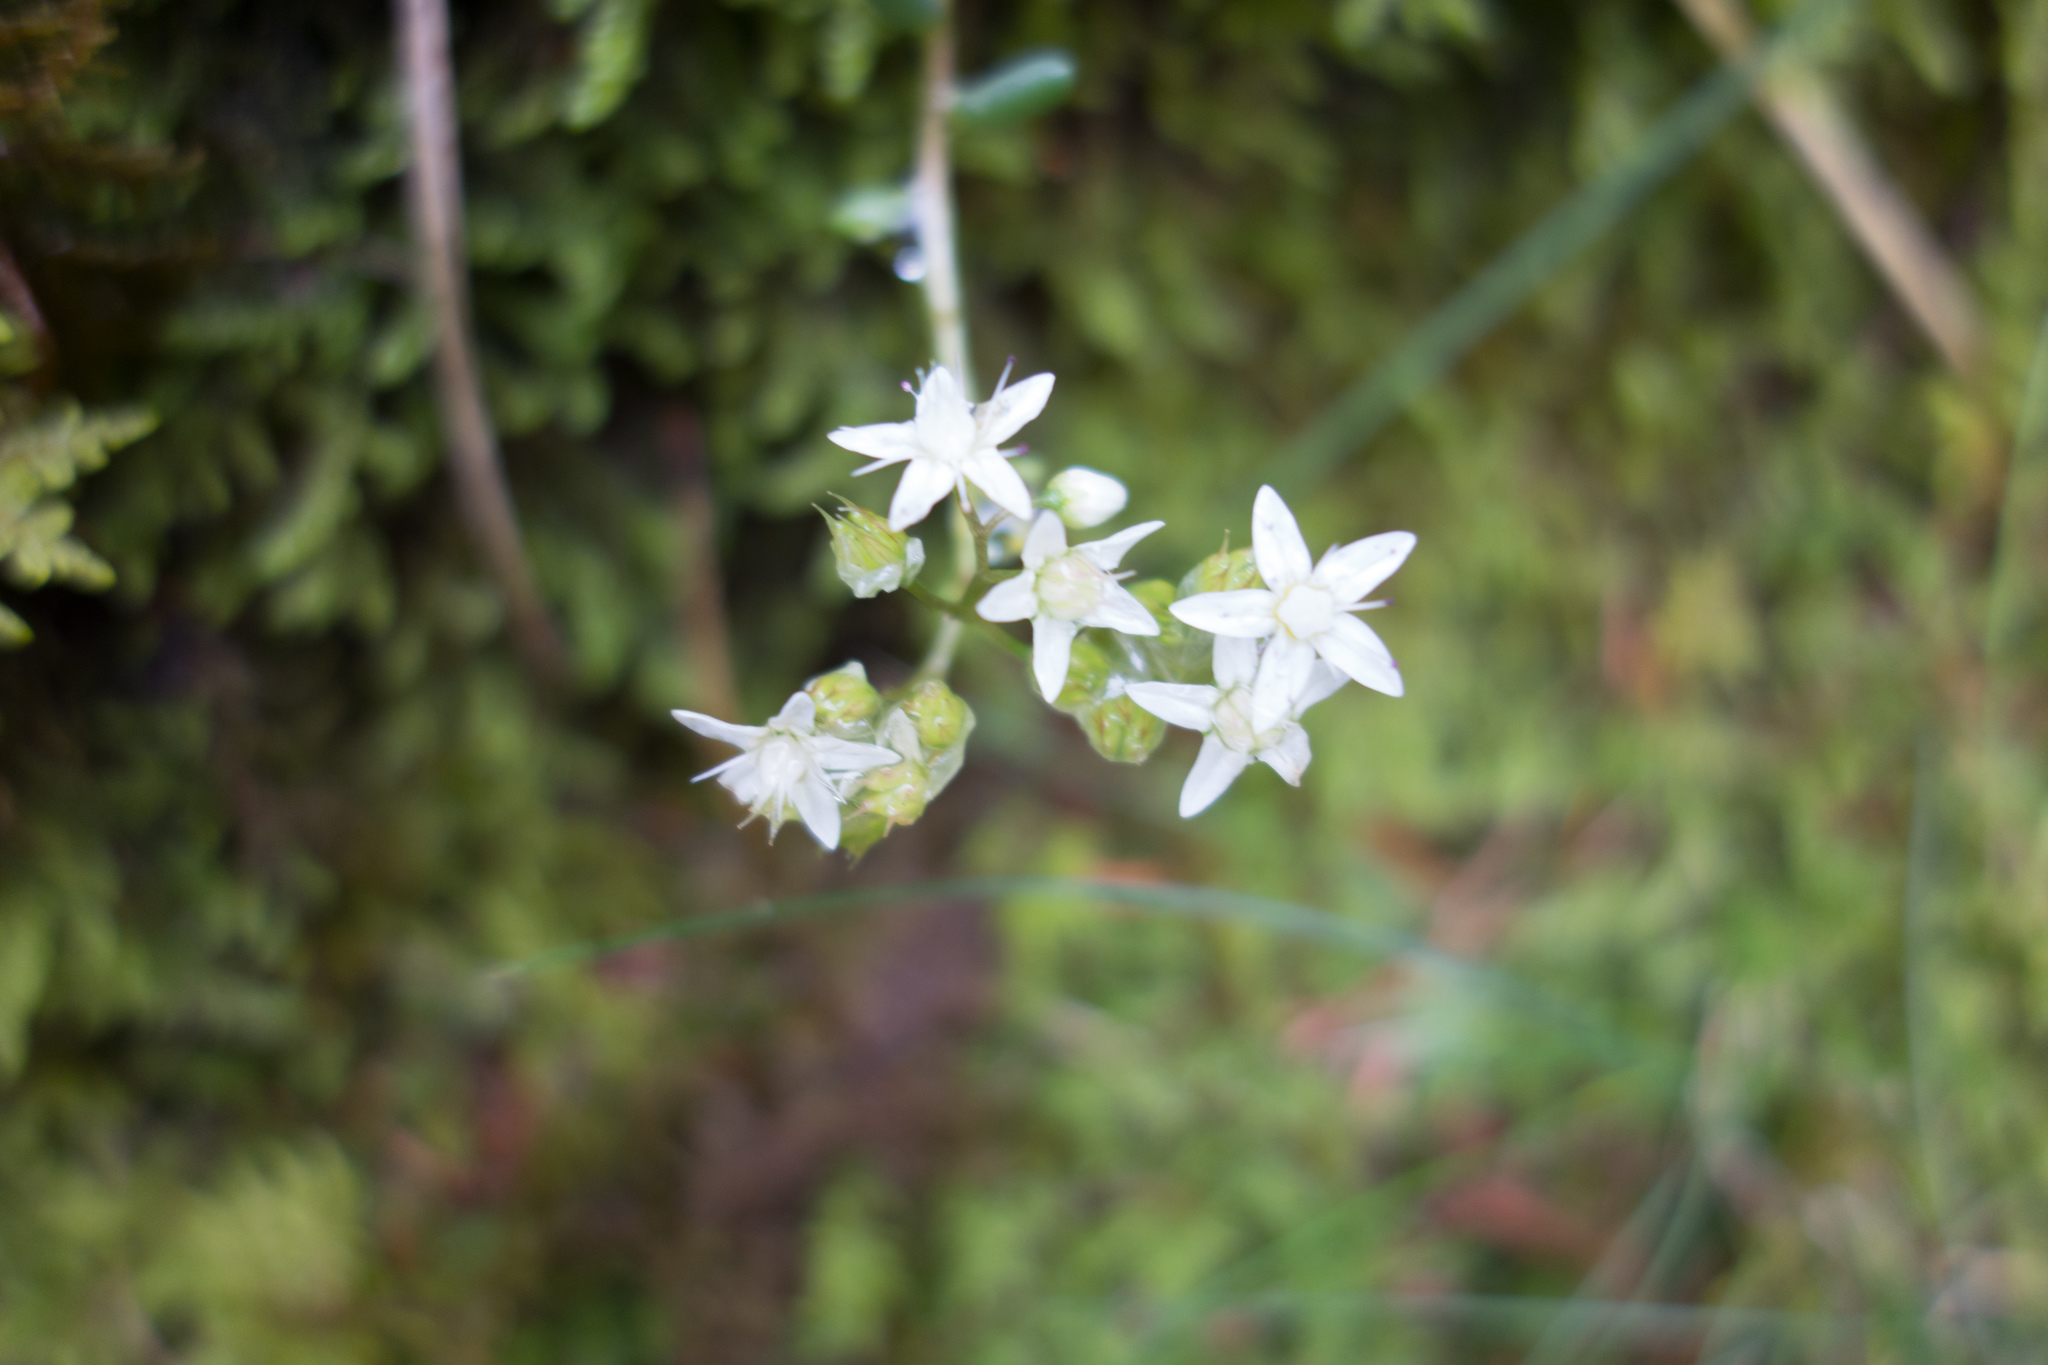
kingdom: Plantae
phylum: Tracheophyta
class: Magnoliopsida
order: Saxifragales
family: Crassulaceae
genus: Sedum
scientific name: Sedum album
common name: White stonecrop
